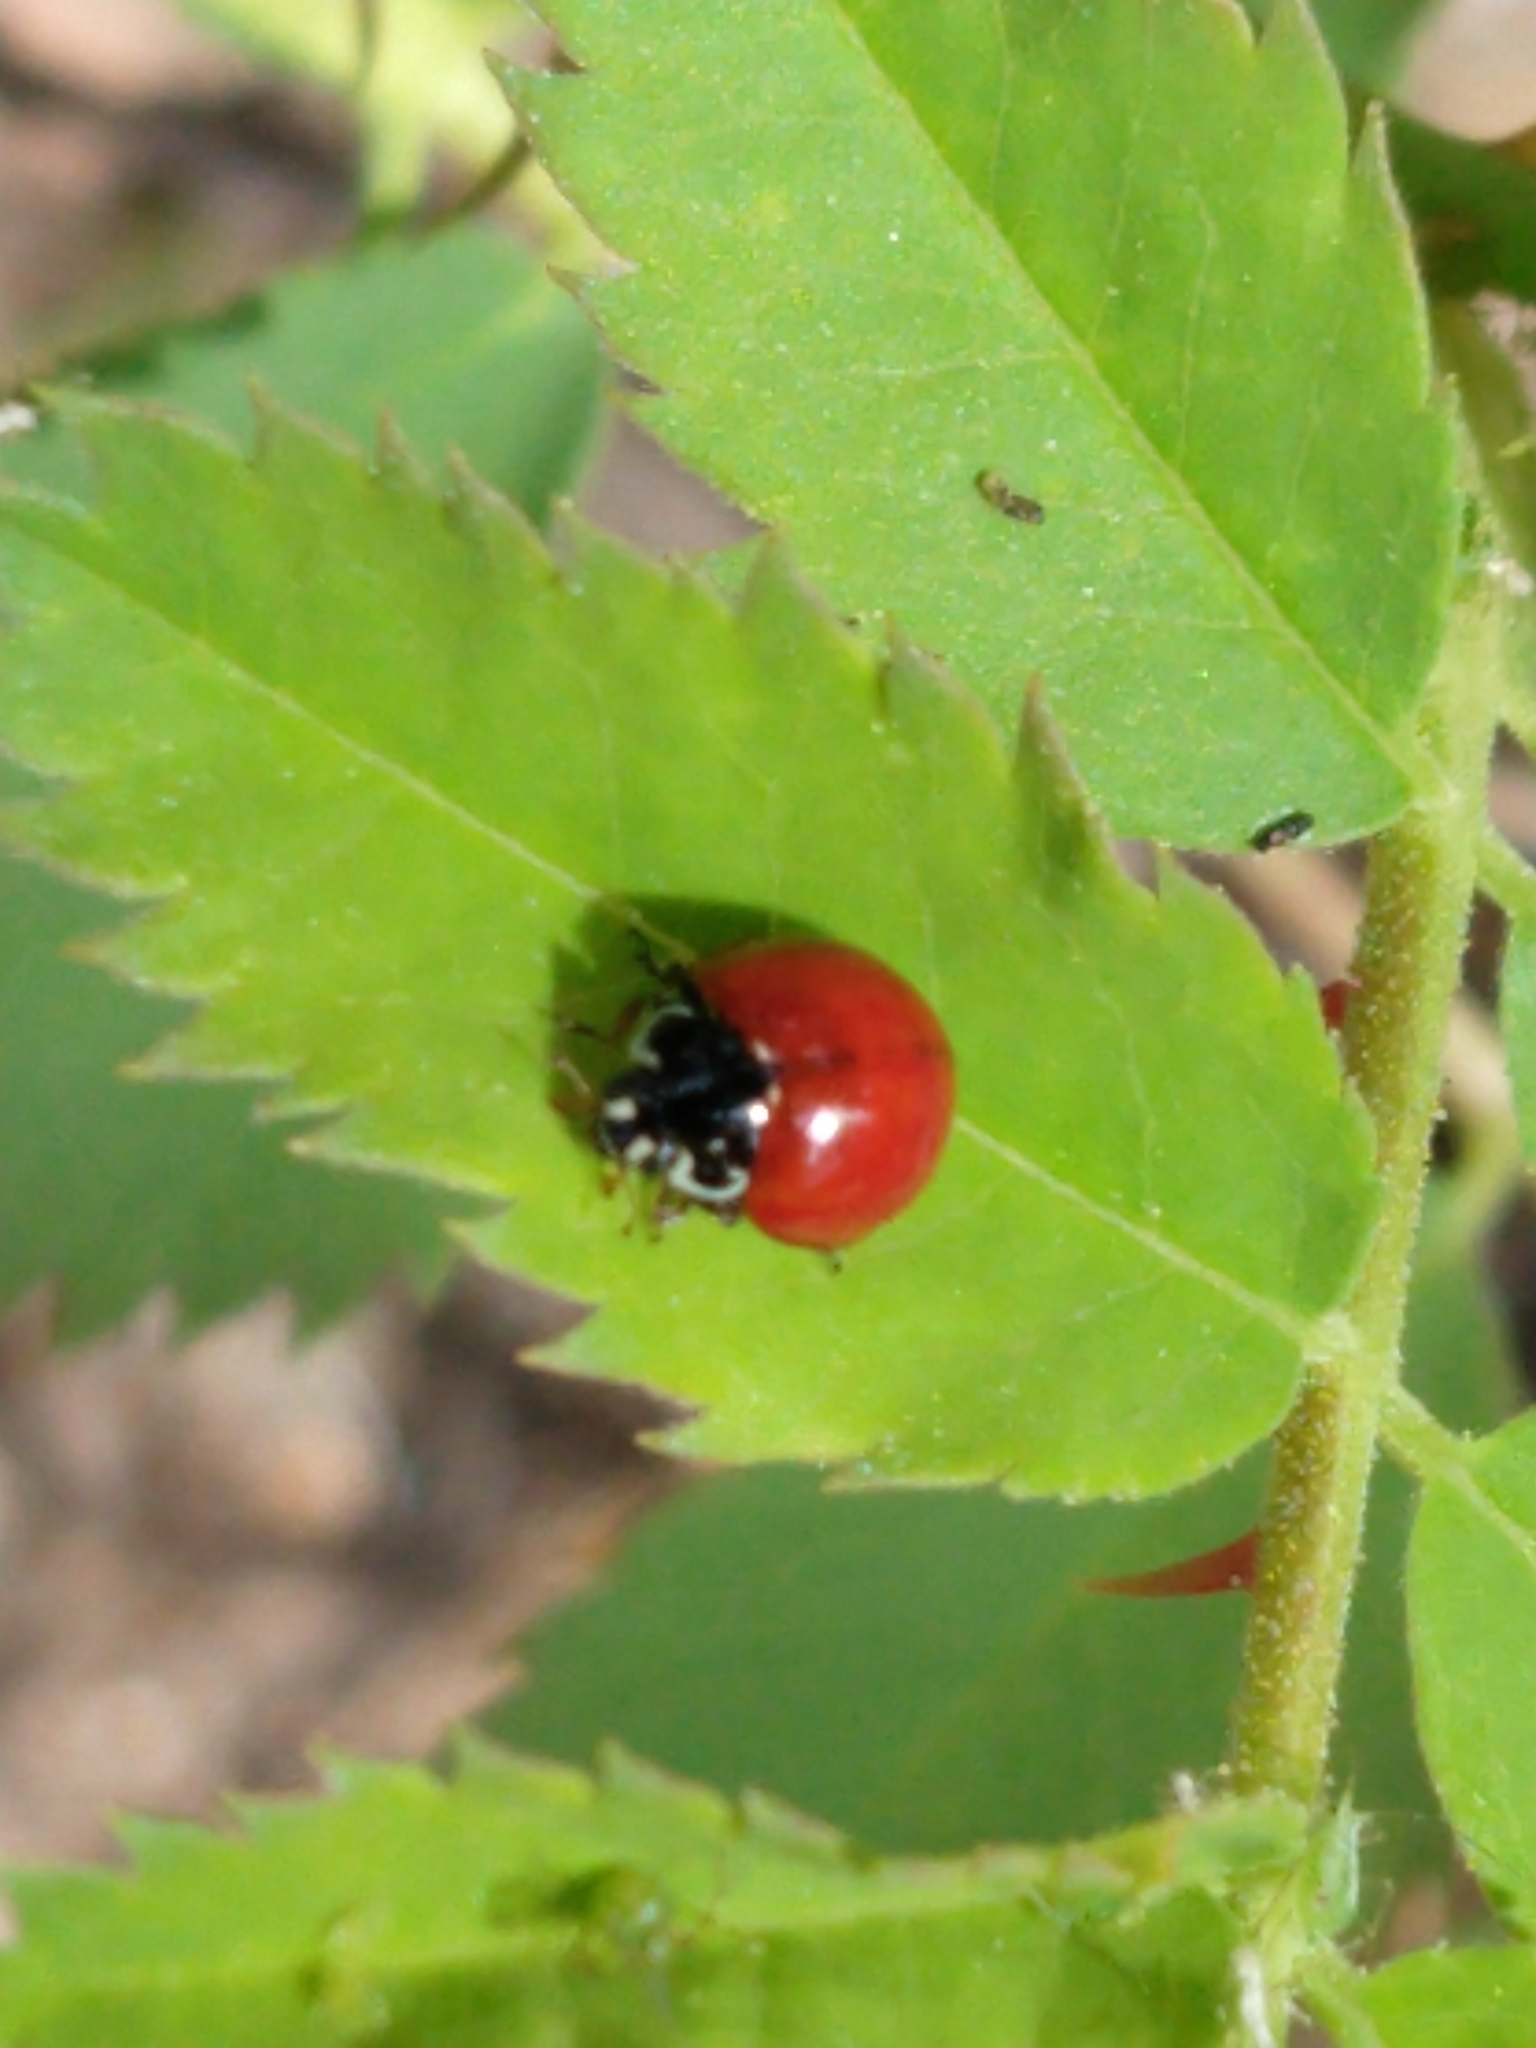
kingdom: Animalia
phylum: Arthropoda
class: Insecta
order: Coleoptera
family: Coccinellidae
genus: Cycloneda
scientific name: Cycloneda sanguinea
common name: Ladybird beetle
